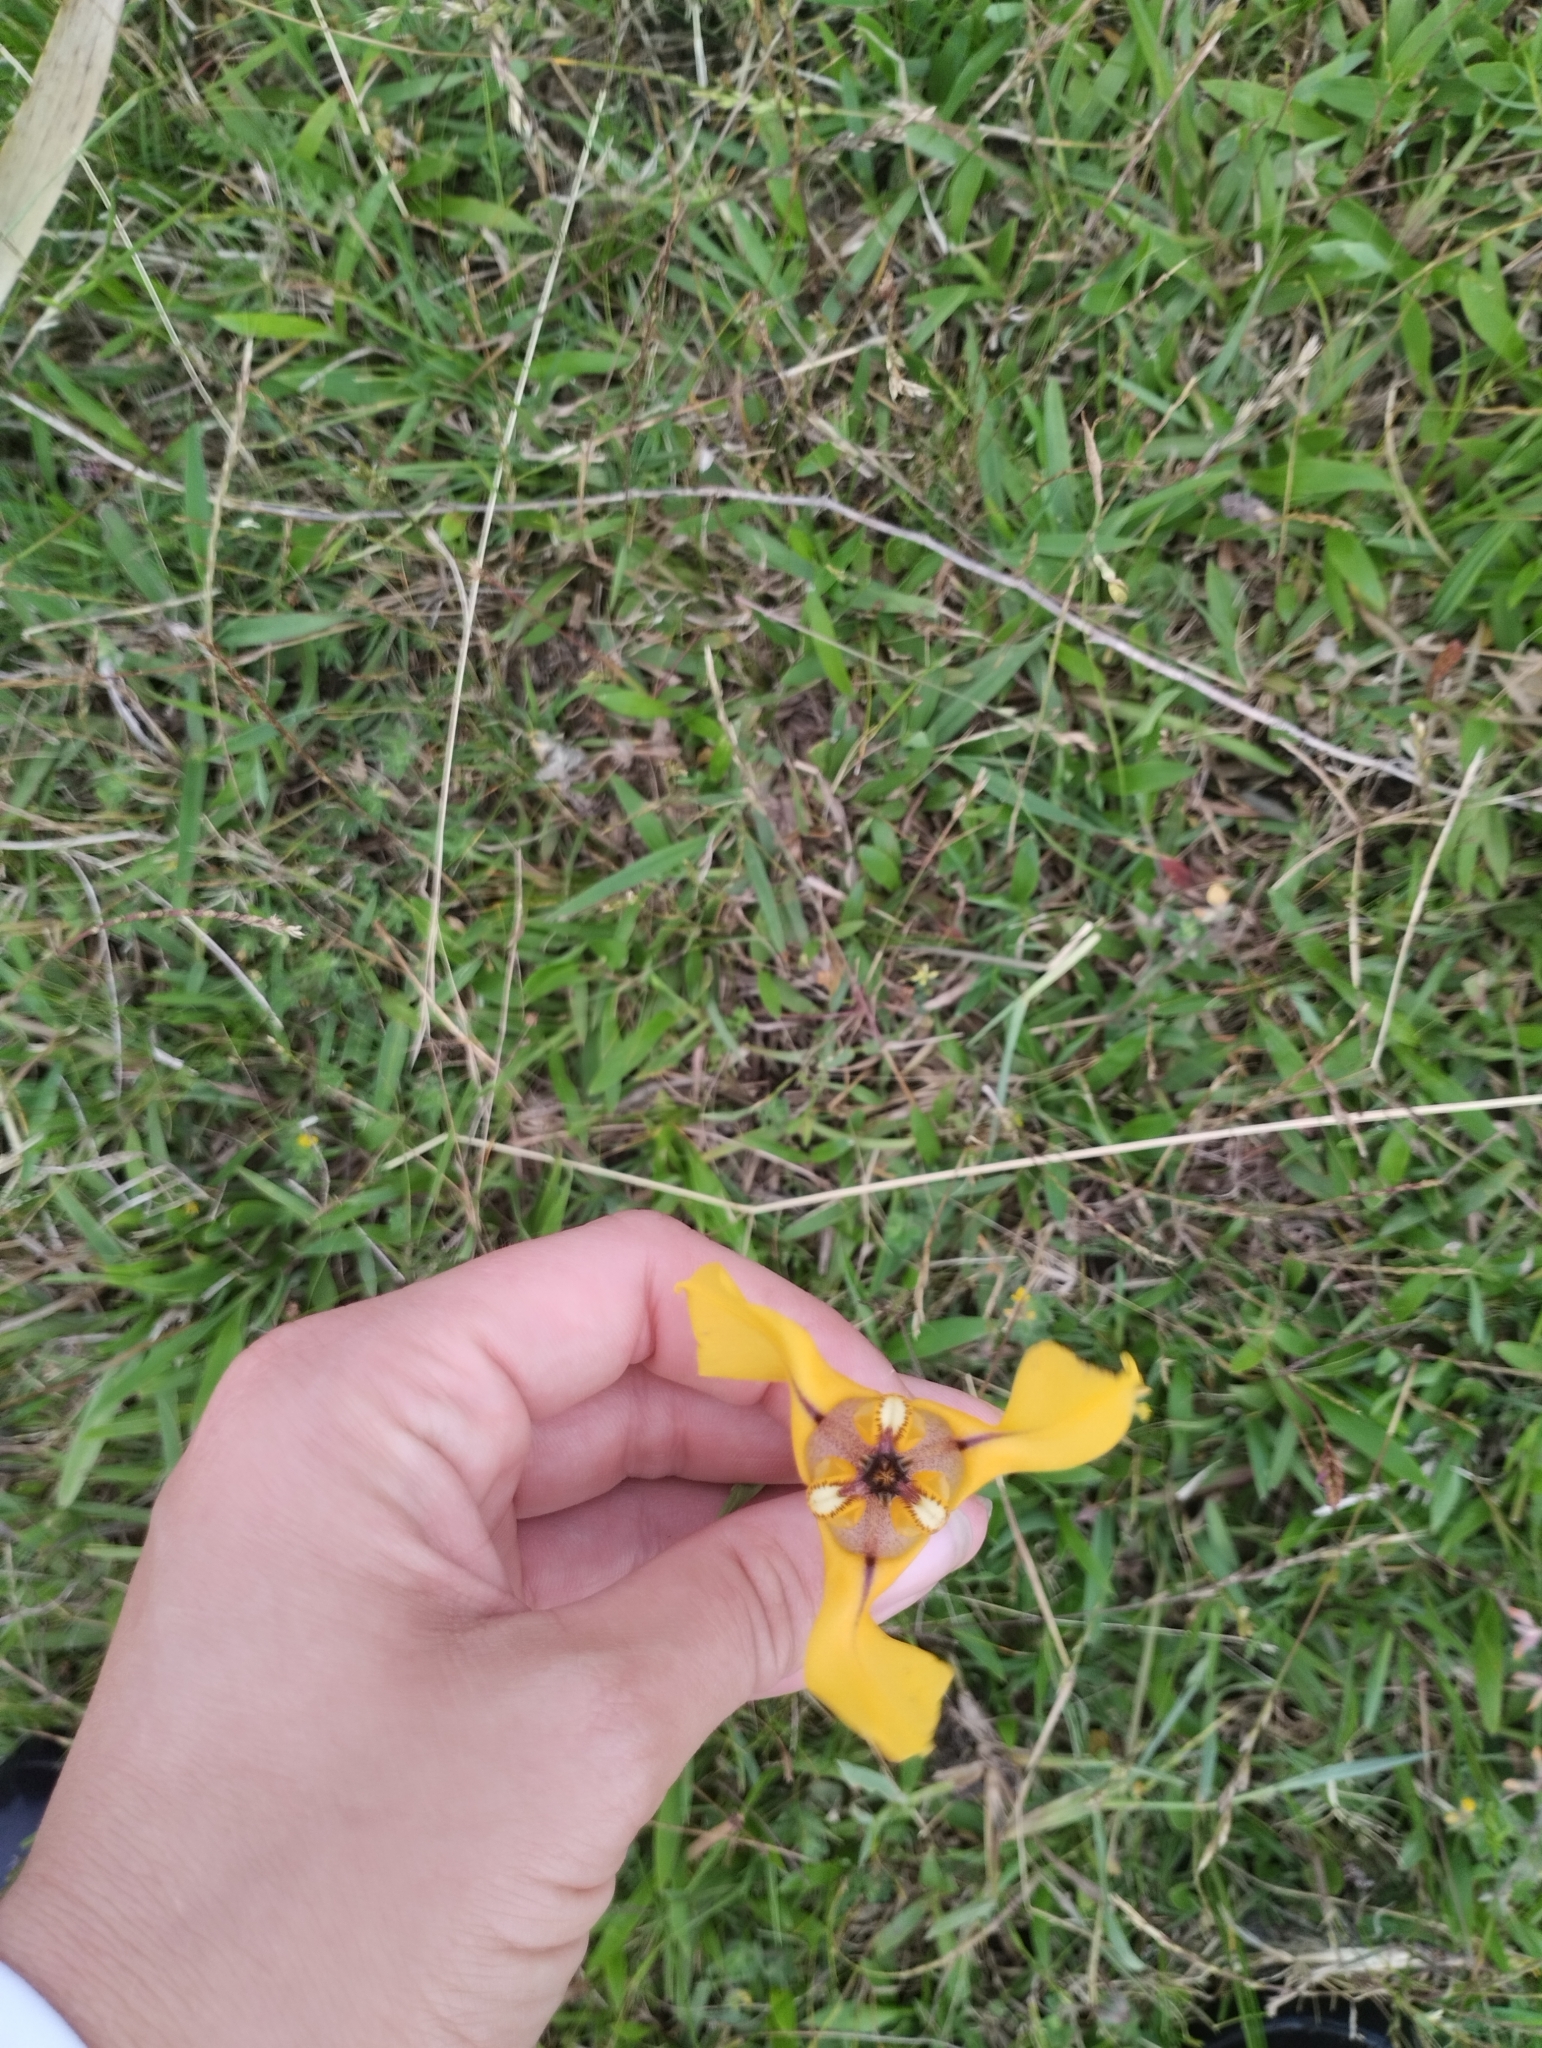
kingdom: Plantae
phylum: Tracheophyta
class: Liliopsida
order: Asparagales
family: Iridaceae
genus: Cypella
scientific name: Cypella herbertii
